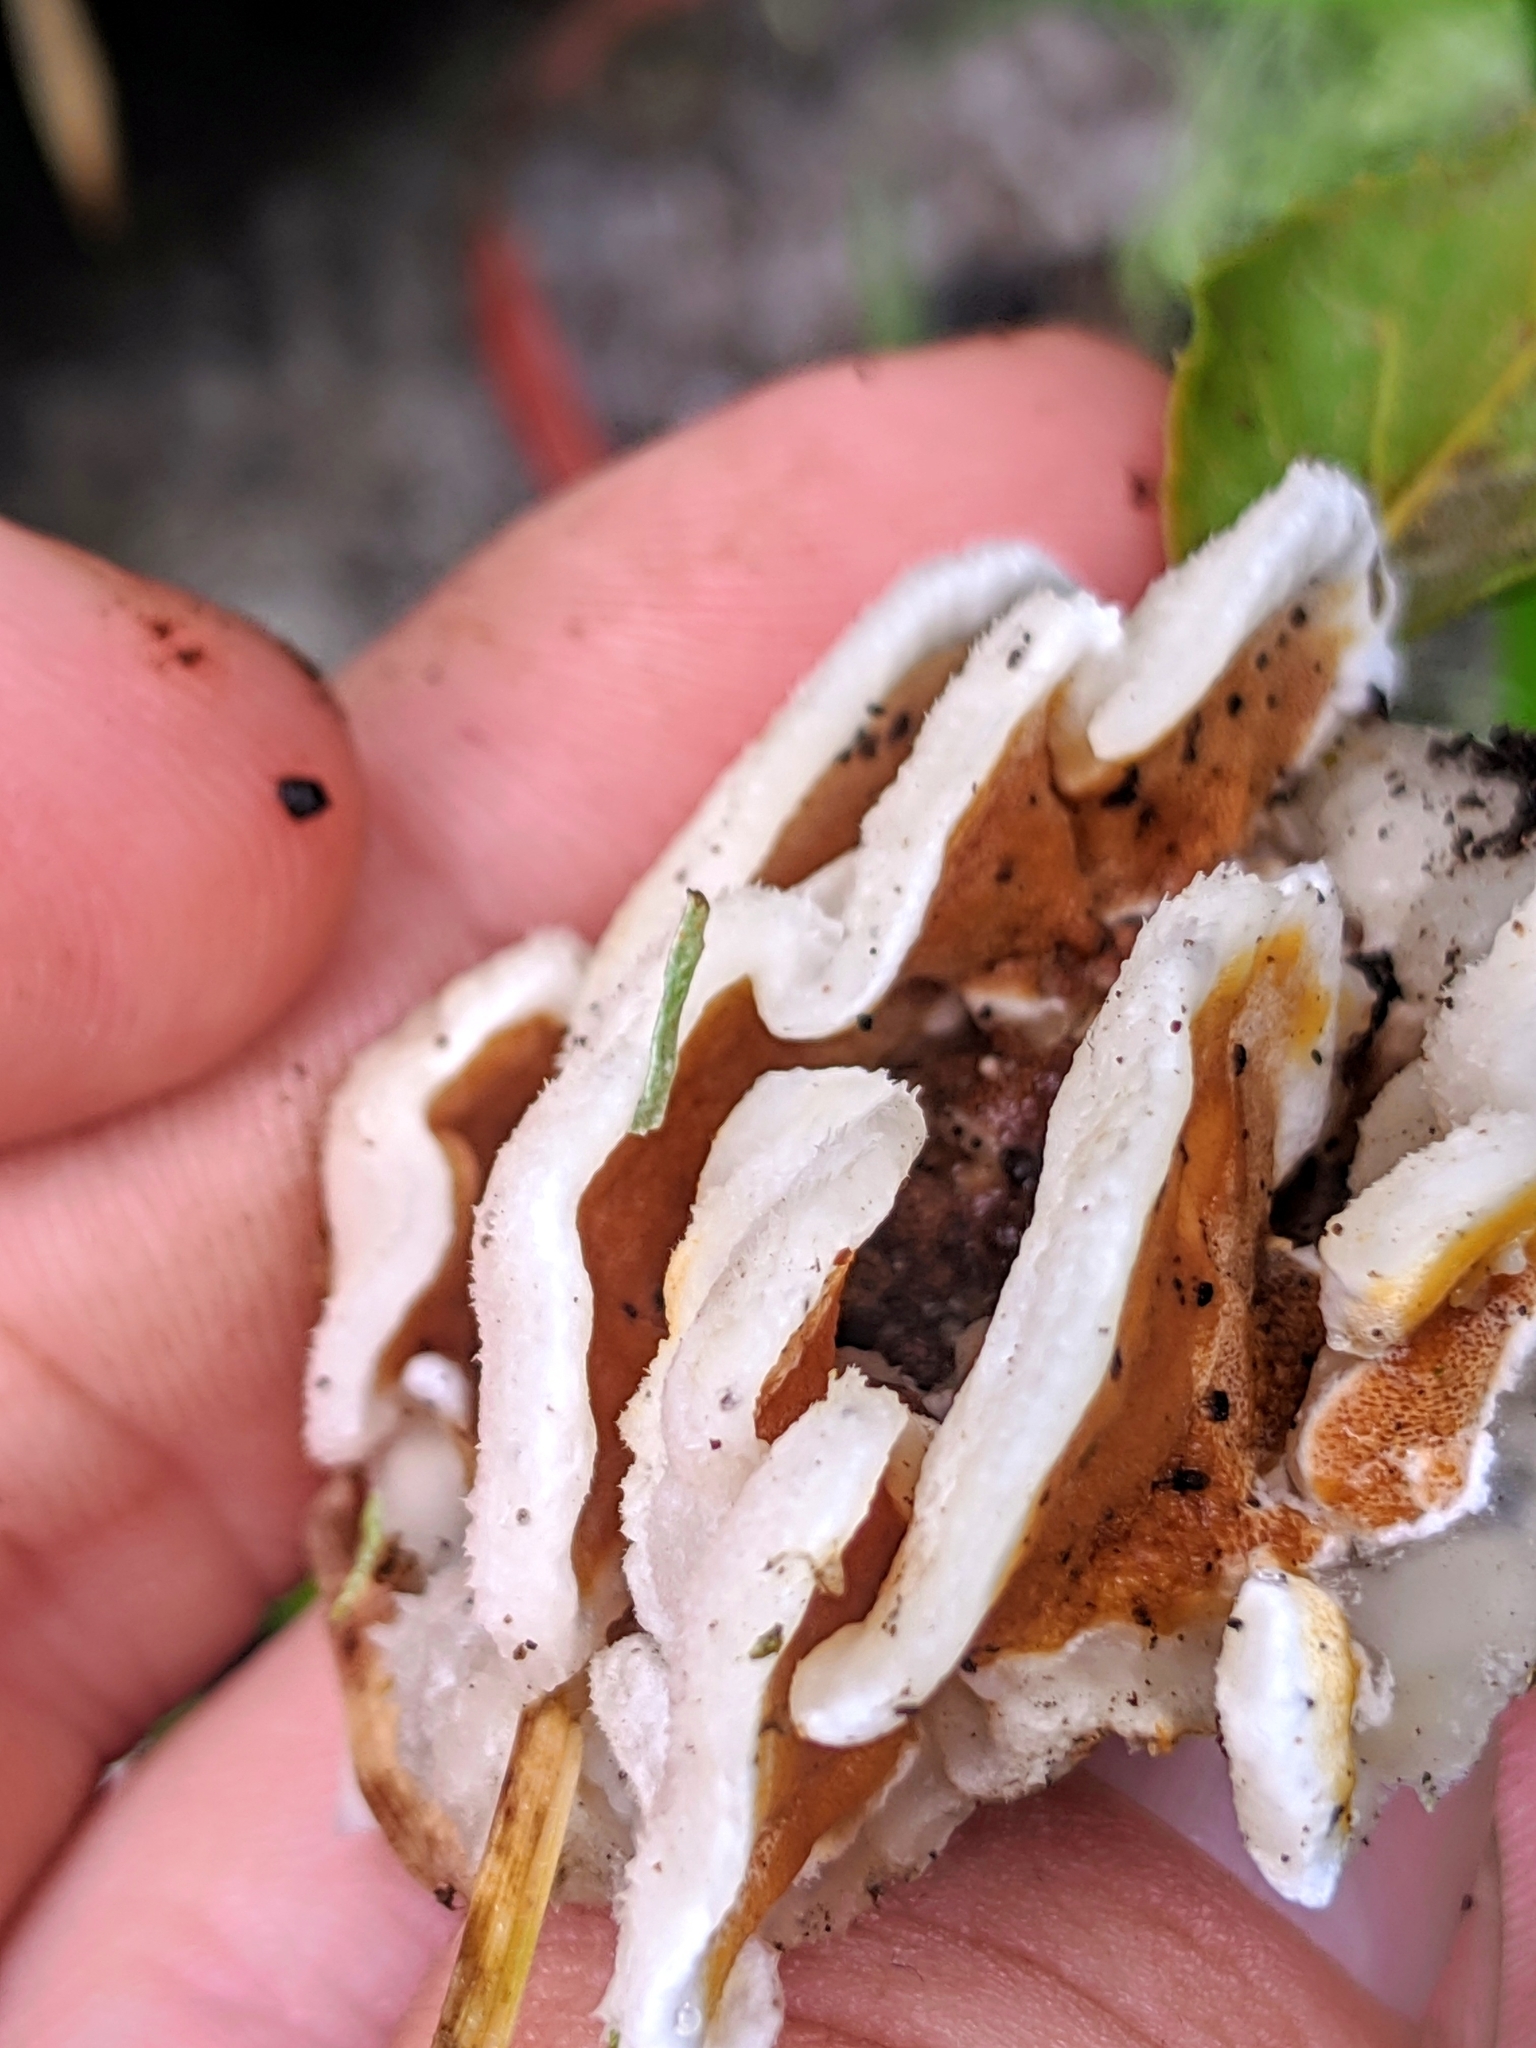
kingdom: Fungi
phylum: Basidiomycota
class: Agaricomycetes
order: Polyporales
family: Irpicaceae
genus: Vitreoporus
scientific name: Vitreoporus dichrous
